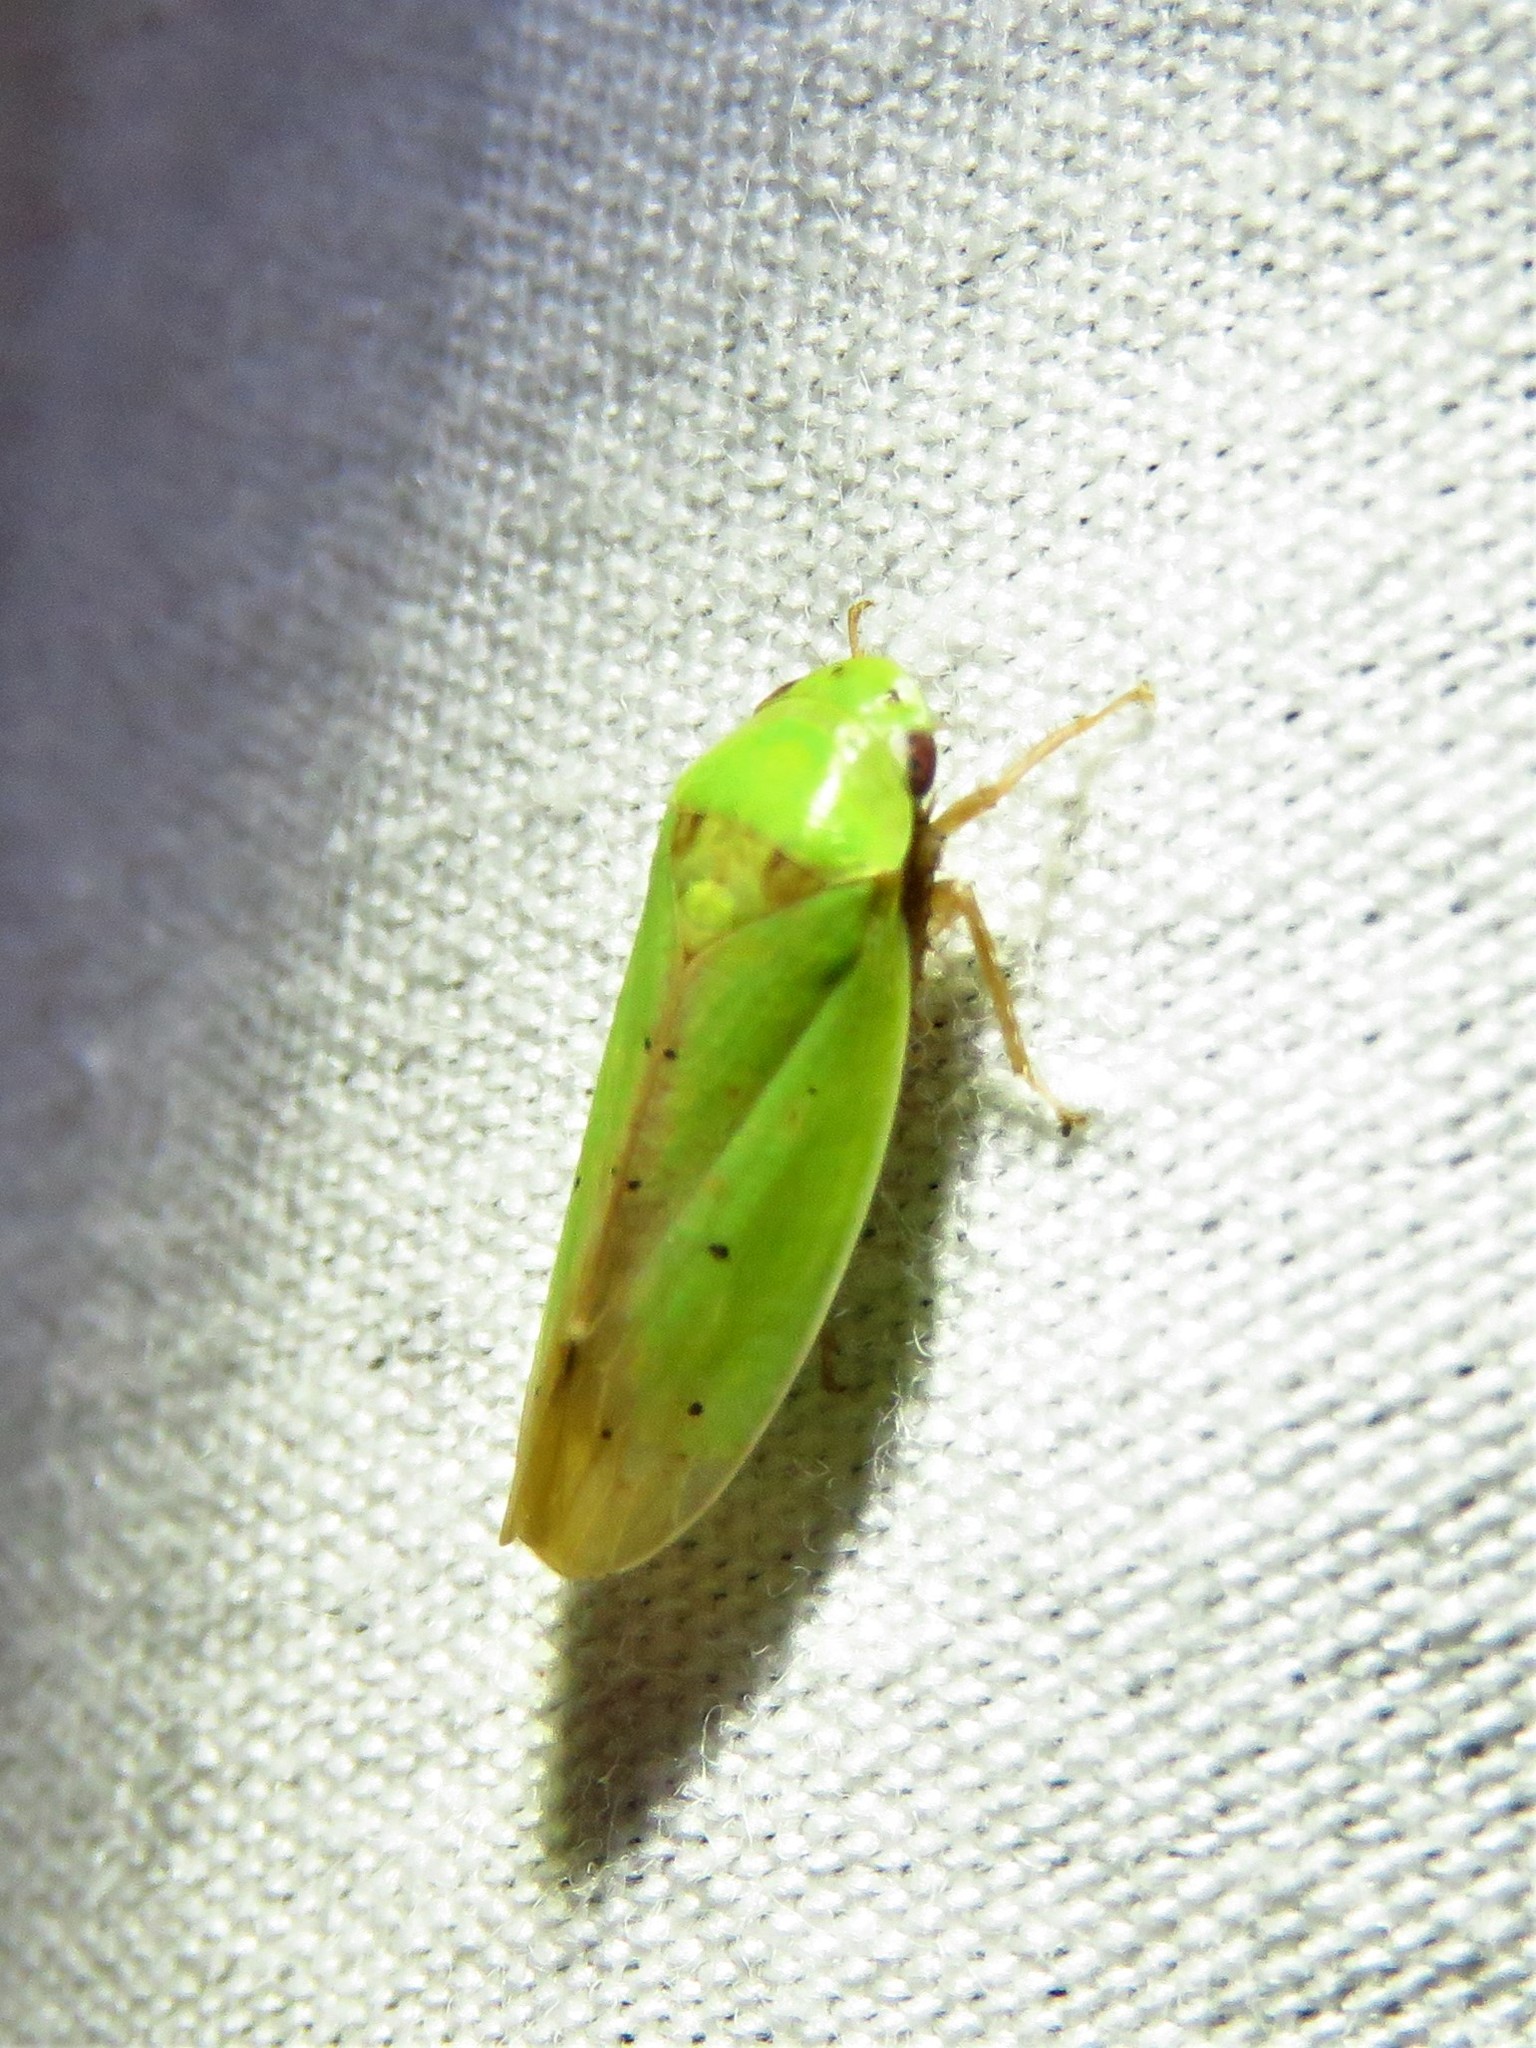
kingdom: Animalia
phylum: Arthropoda
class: Insecta
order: Hemiptera
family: Cicadellidae
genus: Ponana
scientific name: Ponana
